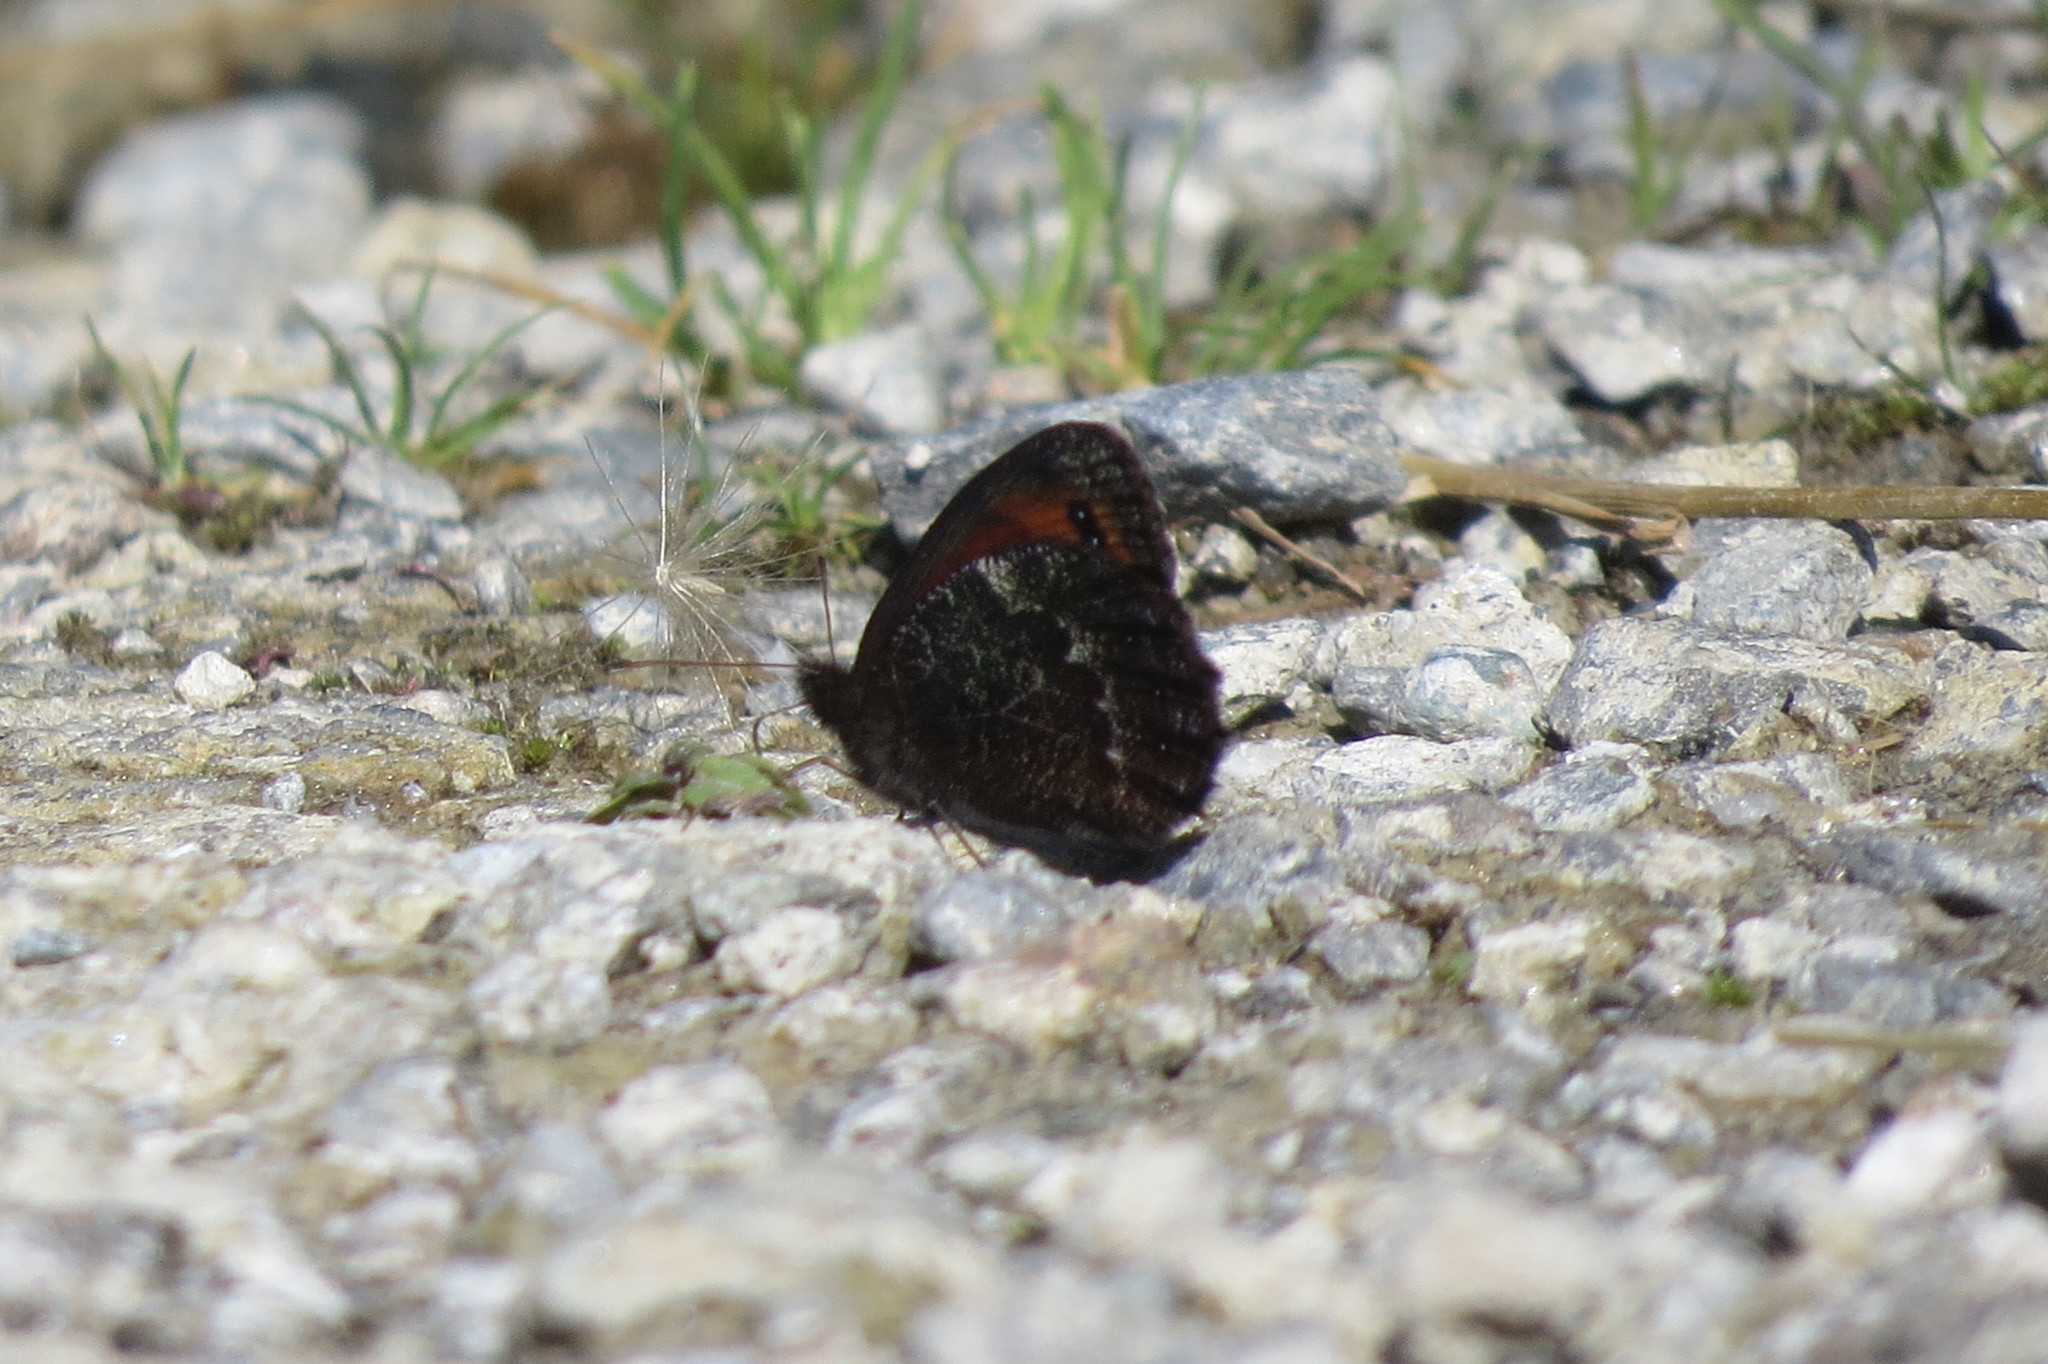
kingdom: Animalia
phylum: Arthropoda
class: Insecta
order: Lepidoptera
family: Nymphalidae
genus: Erebia
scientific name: Erebia montanus
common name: Marbled ringlet
